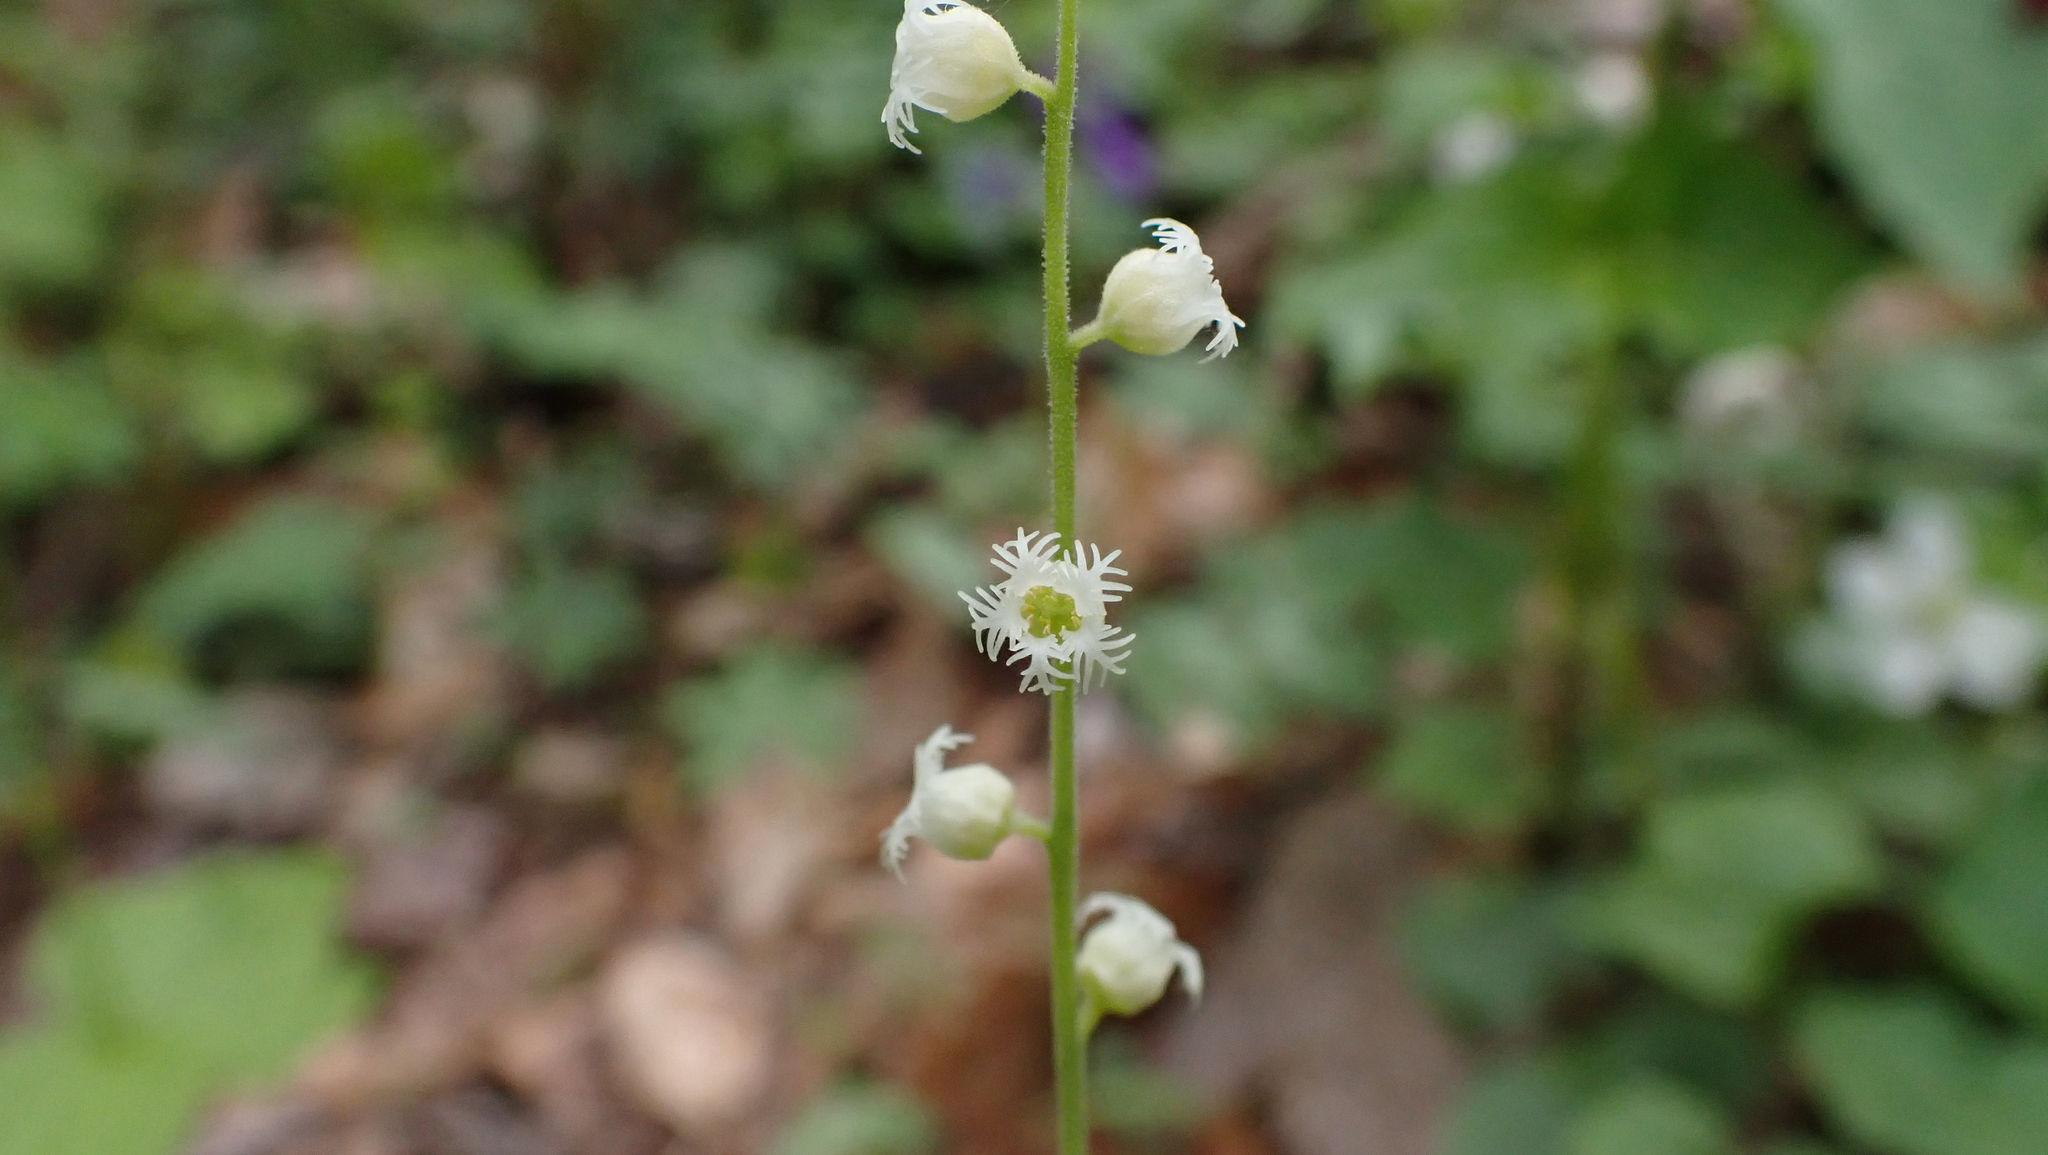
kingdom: Plantae
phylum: Tracheophyta
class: Magnoliopsida
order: Saxifragales
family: Saxifragaceae
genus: Mitella
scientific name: Mitella diphylla
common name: Coolwort
